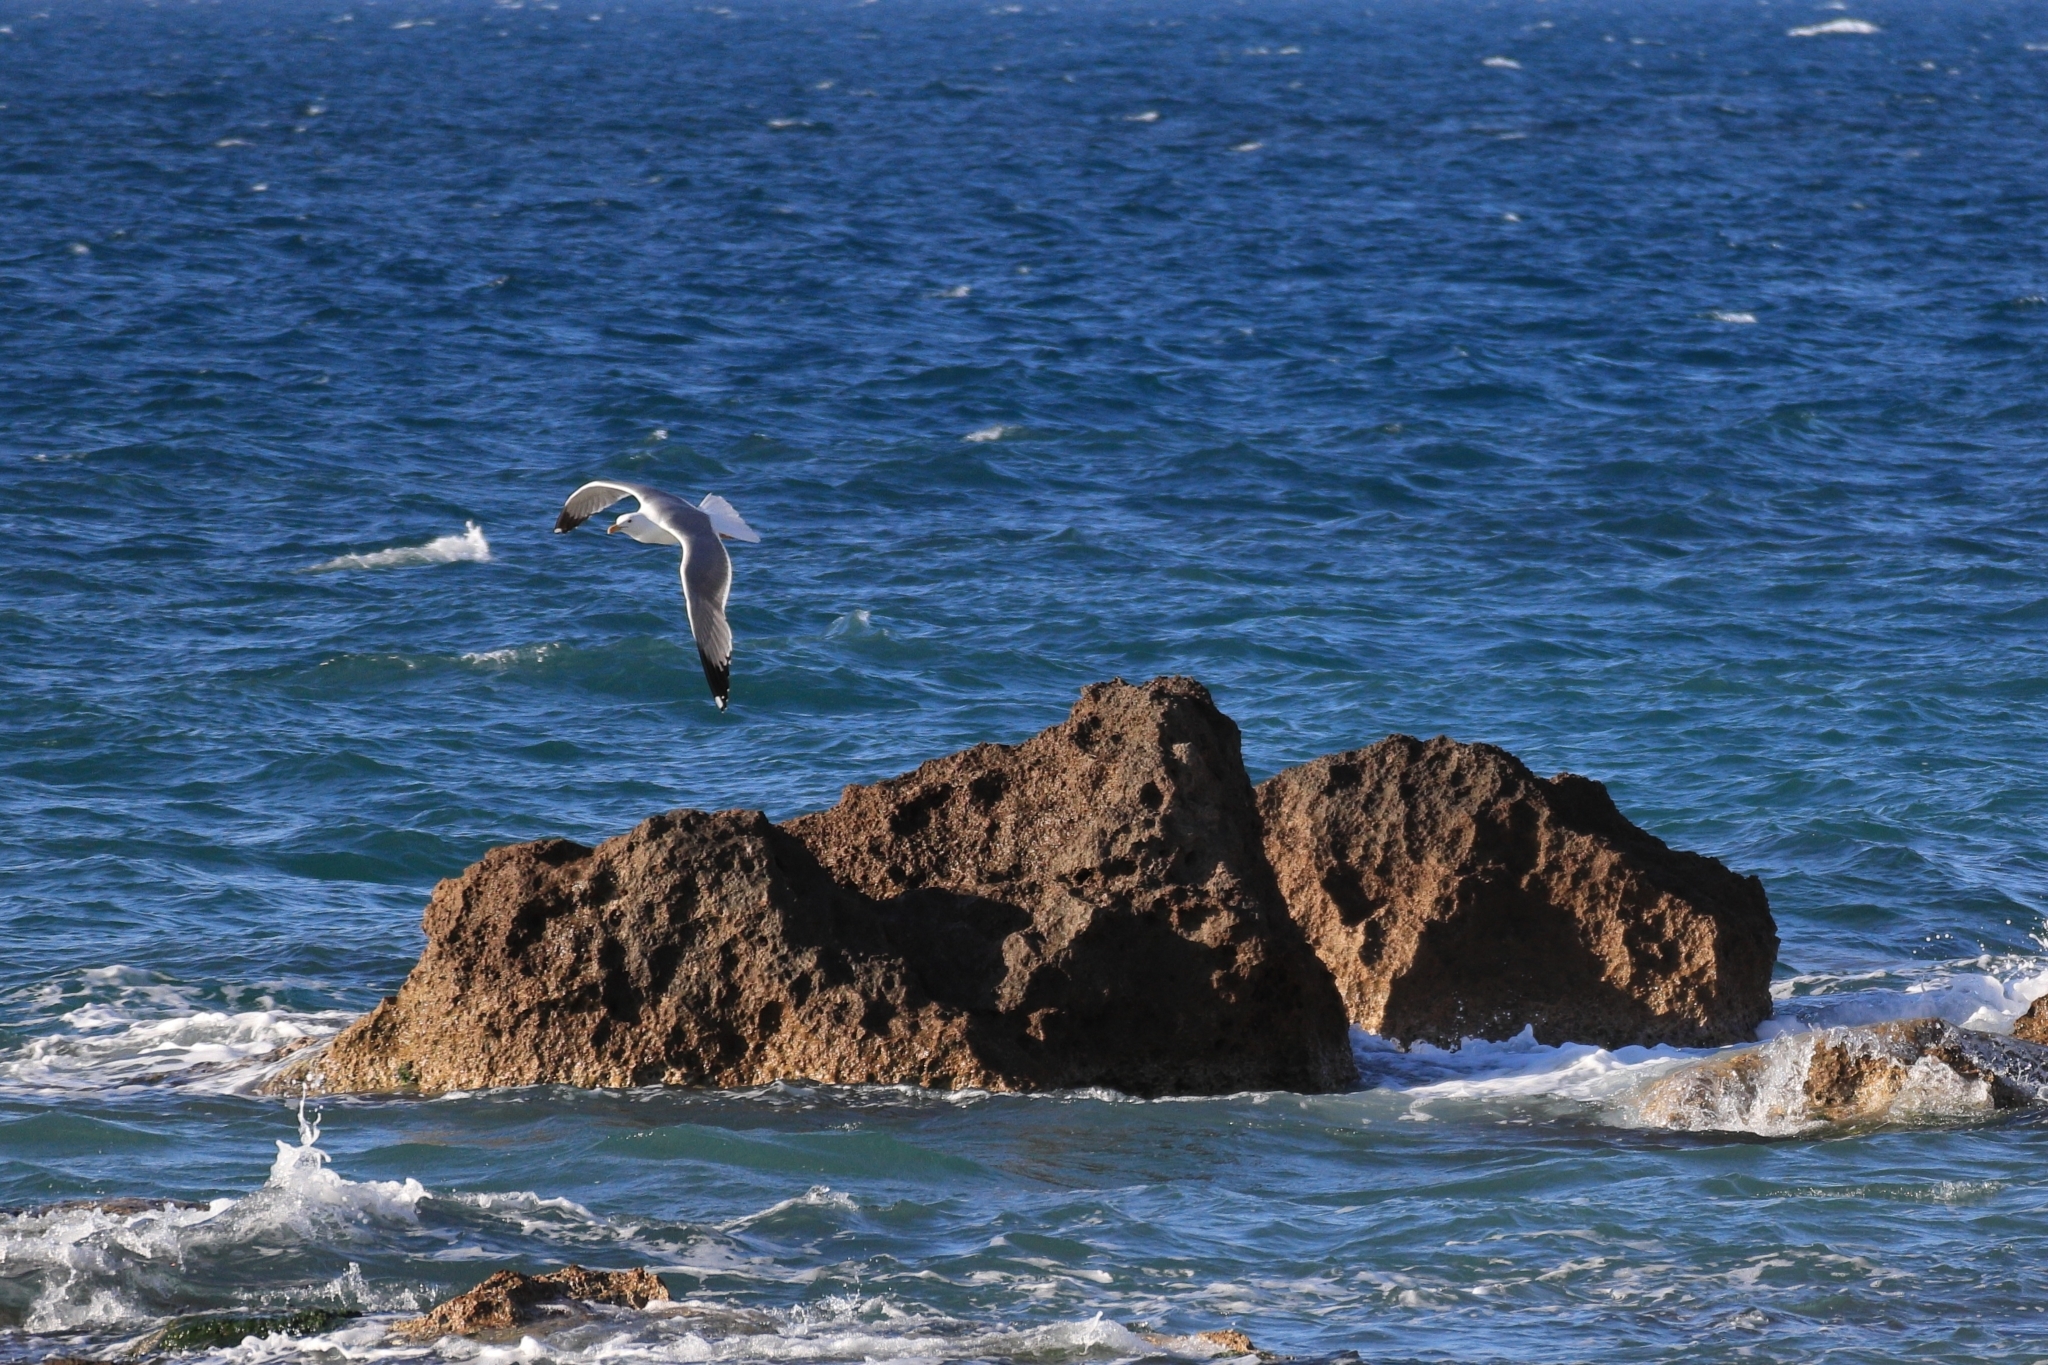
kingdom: Animalia
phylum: Chordata
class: Aves
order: Charadriiformes
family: Laridae
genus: Larus
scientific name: Larus michahellis
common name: Yellow-legged gull
